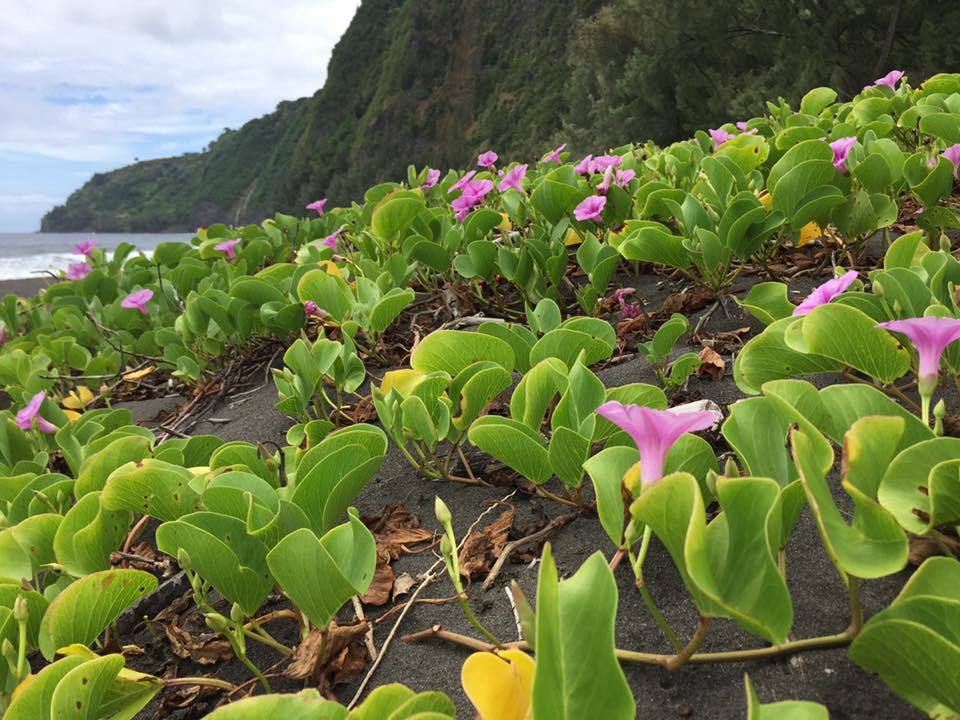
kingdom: Plantae
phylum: Tracheophyta
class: Magnoliopsida
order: Solanales
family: Convolvulaceae
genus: Ipomoea
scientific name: Ipomoea pes-caprae
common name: Beach morning glory
